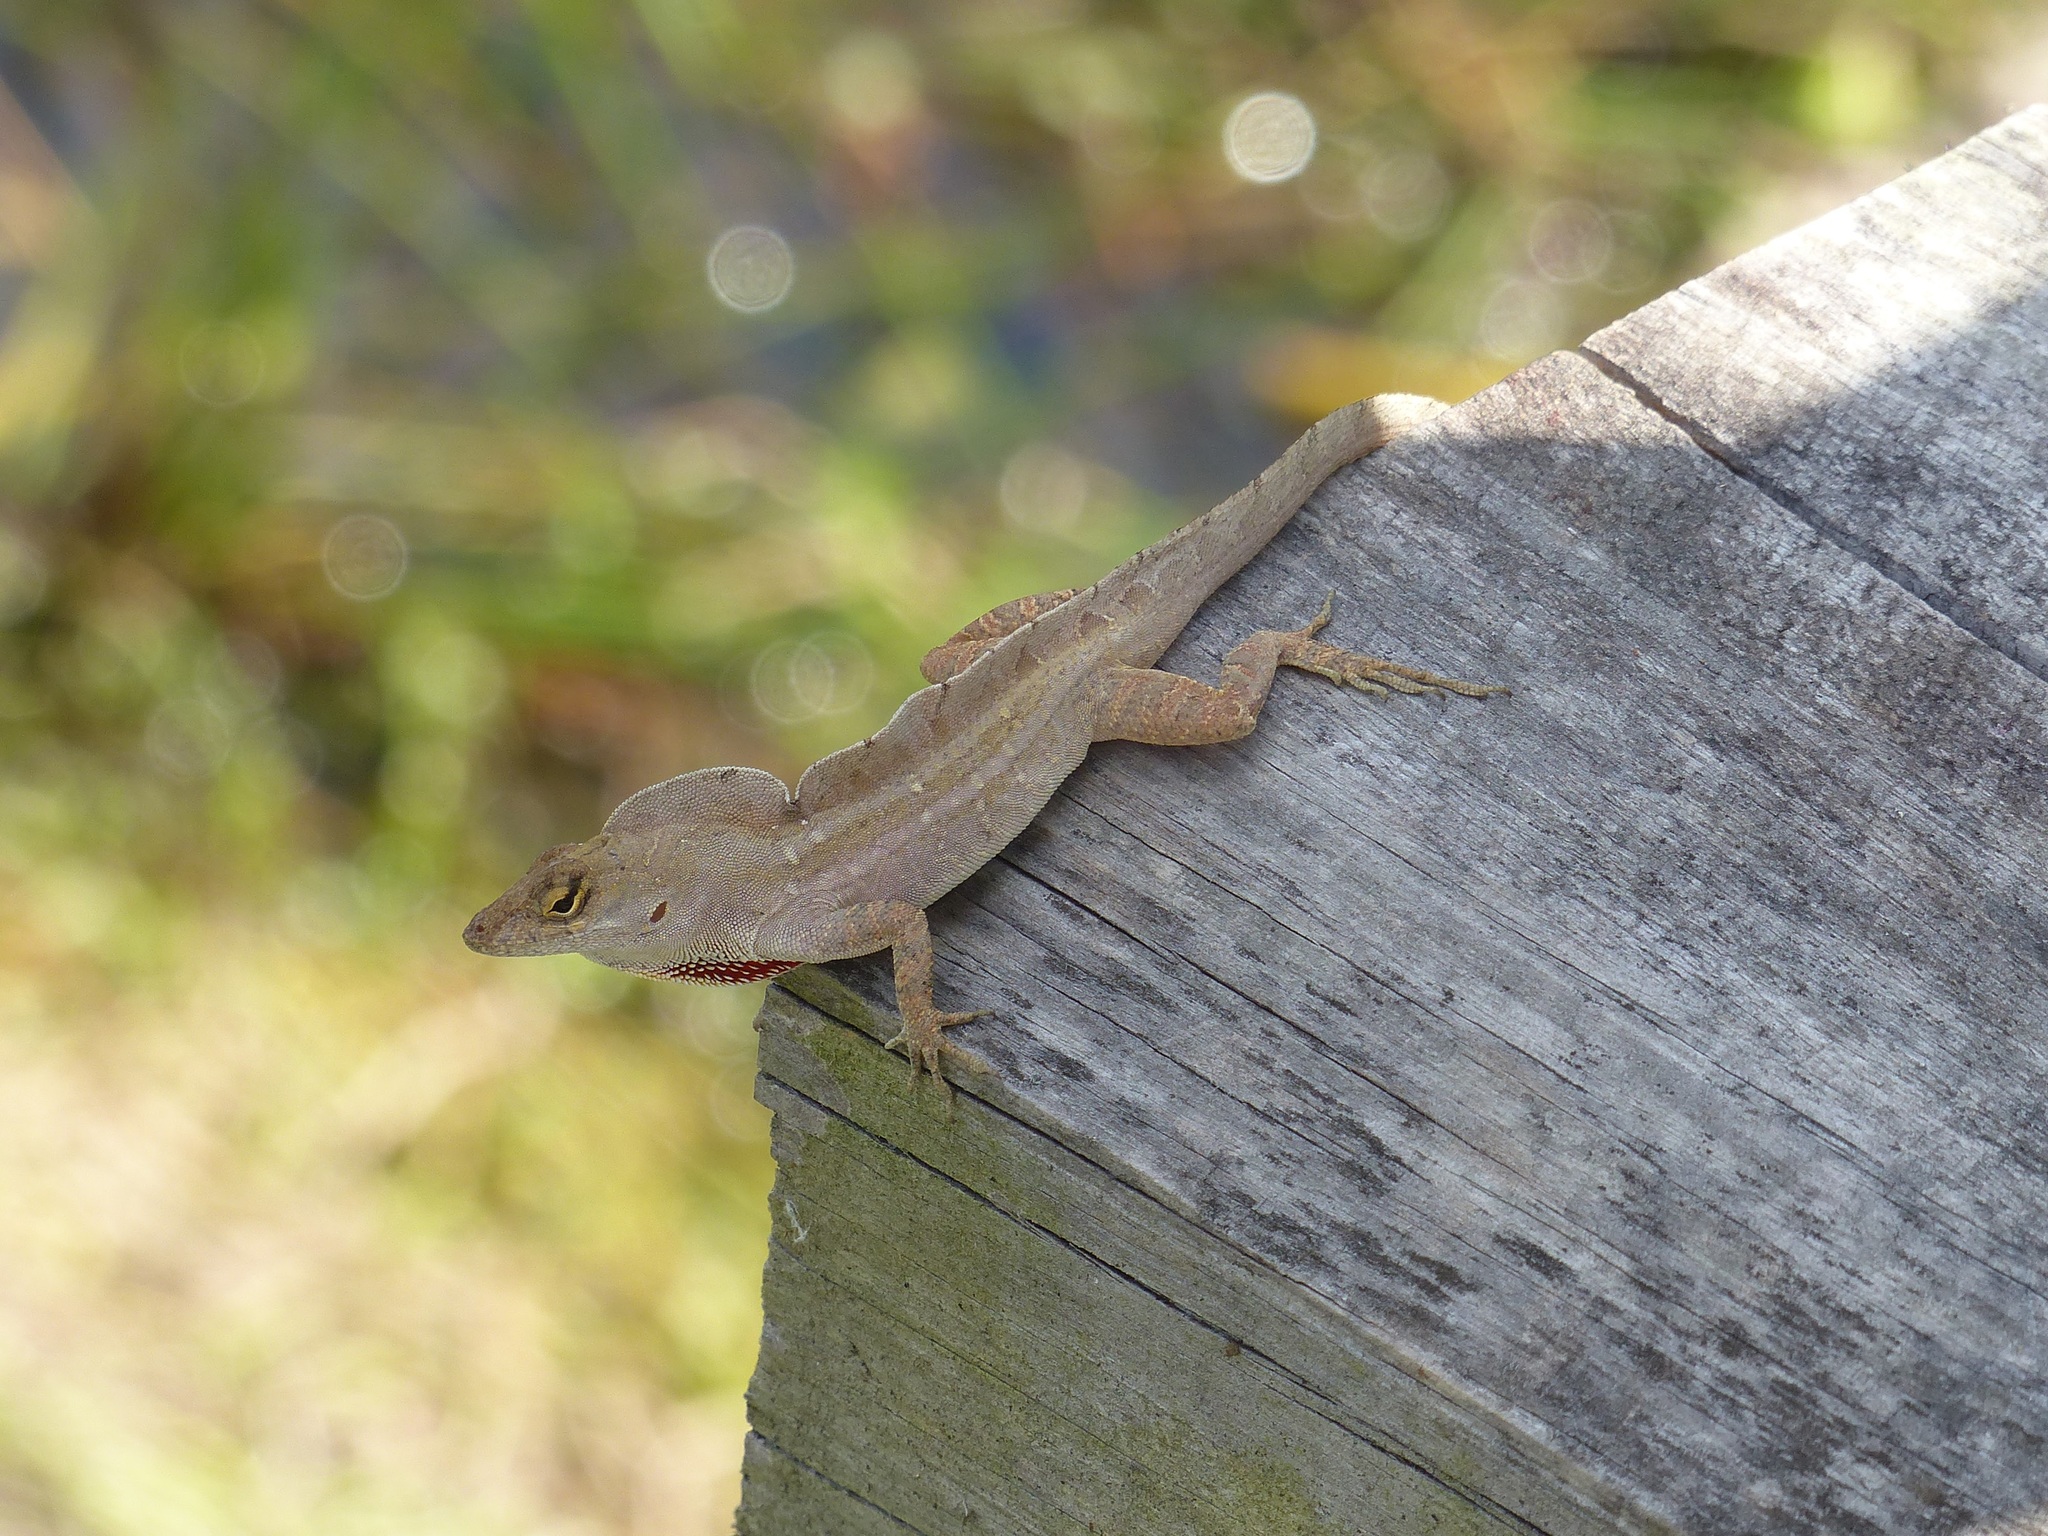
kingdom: Animalia
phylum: Chordata
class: Squamata
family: Dactyloidae
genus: Anolis
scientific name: Anolis sagrei
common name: Brown anole
